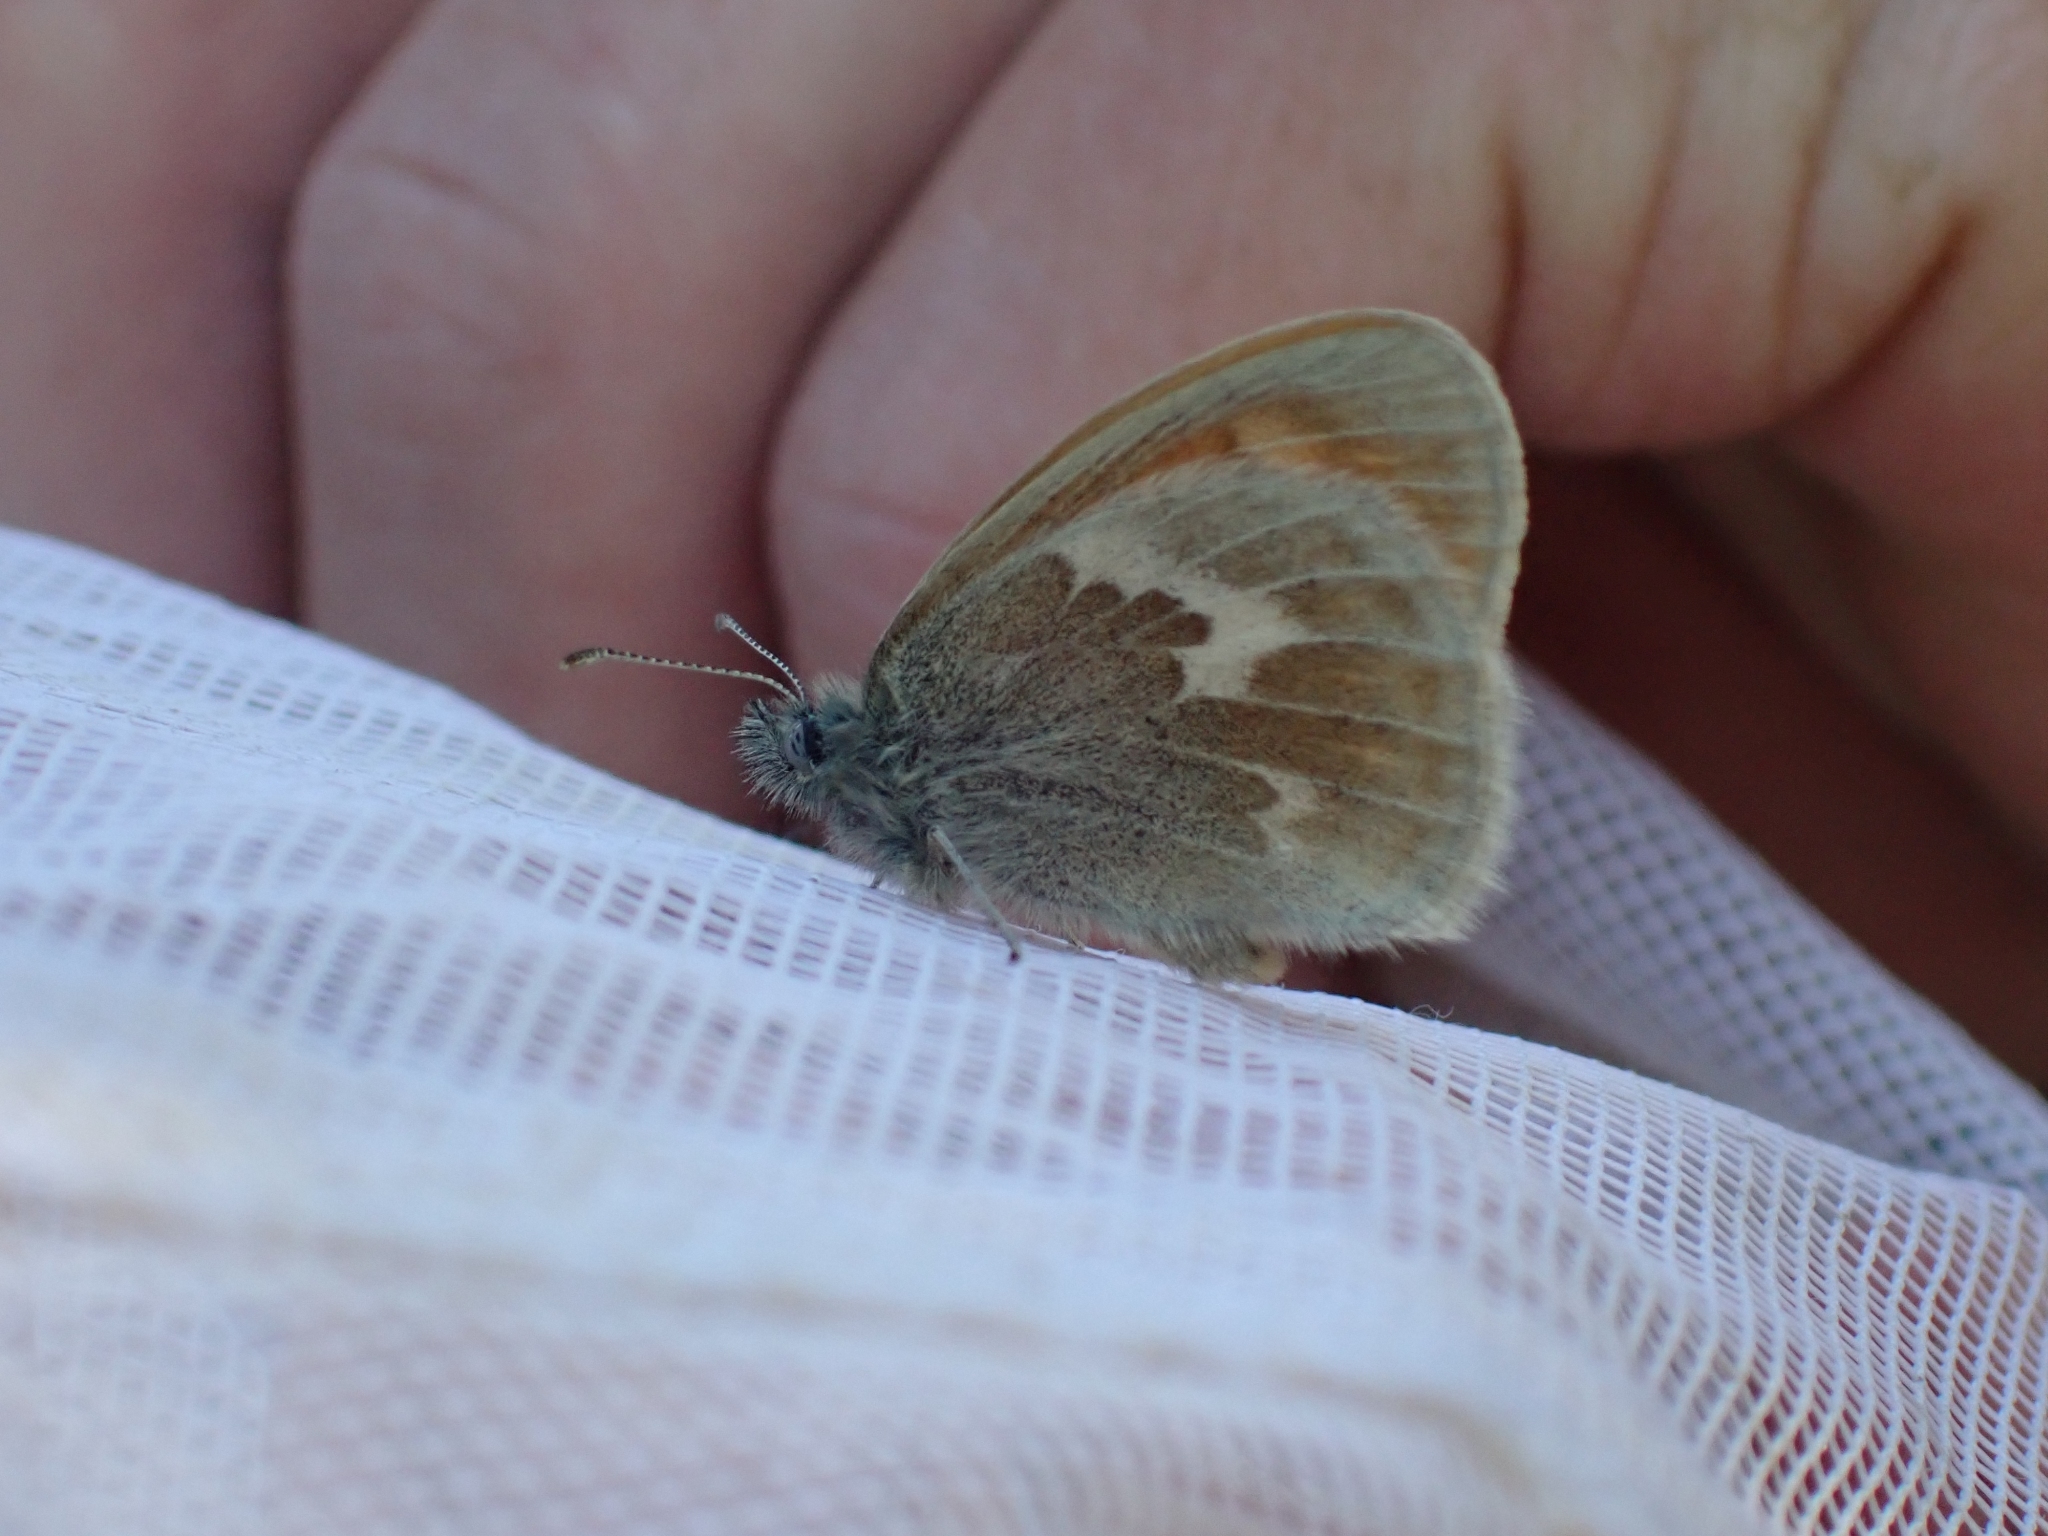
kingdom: Animalia
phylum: Arthropoda
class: Insecta
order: Lepidoptera
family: Nymphalidae
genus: Coenonympha
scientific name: Coenonympha california
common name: Common ringlet
